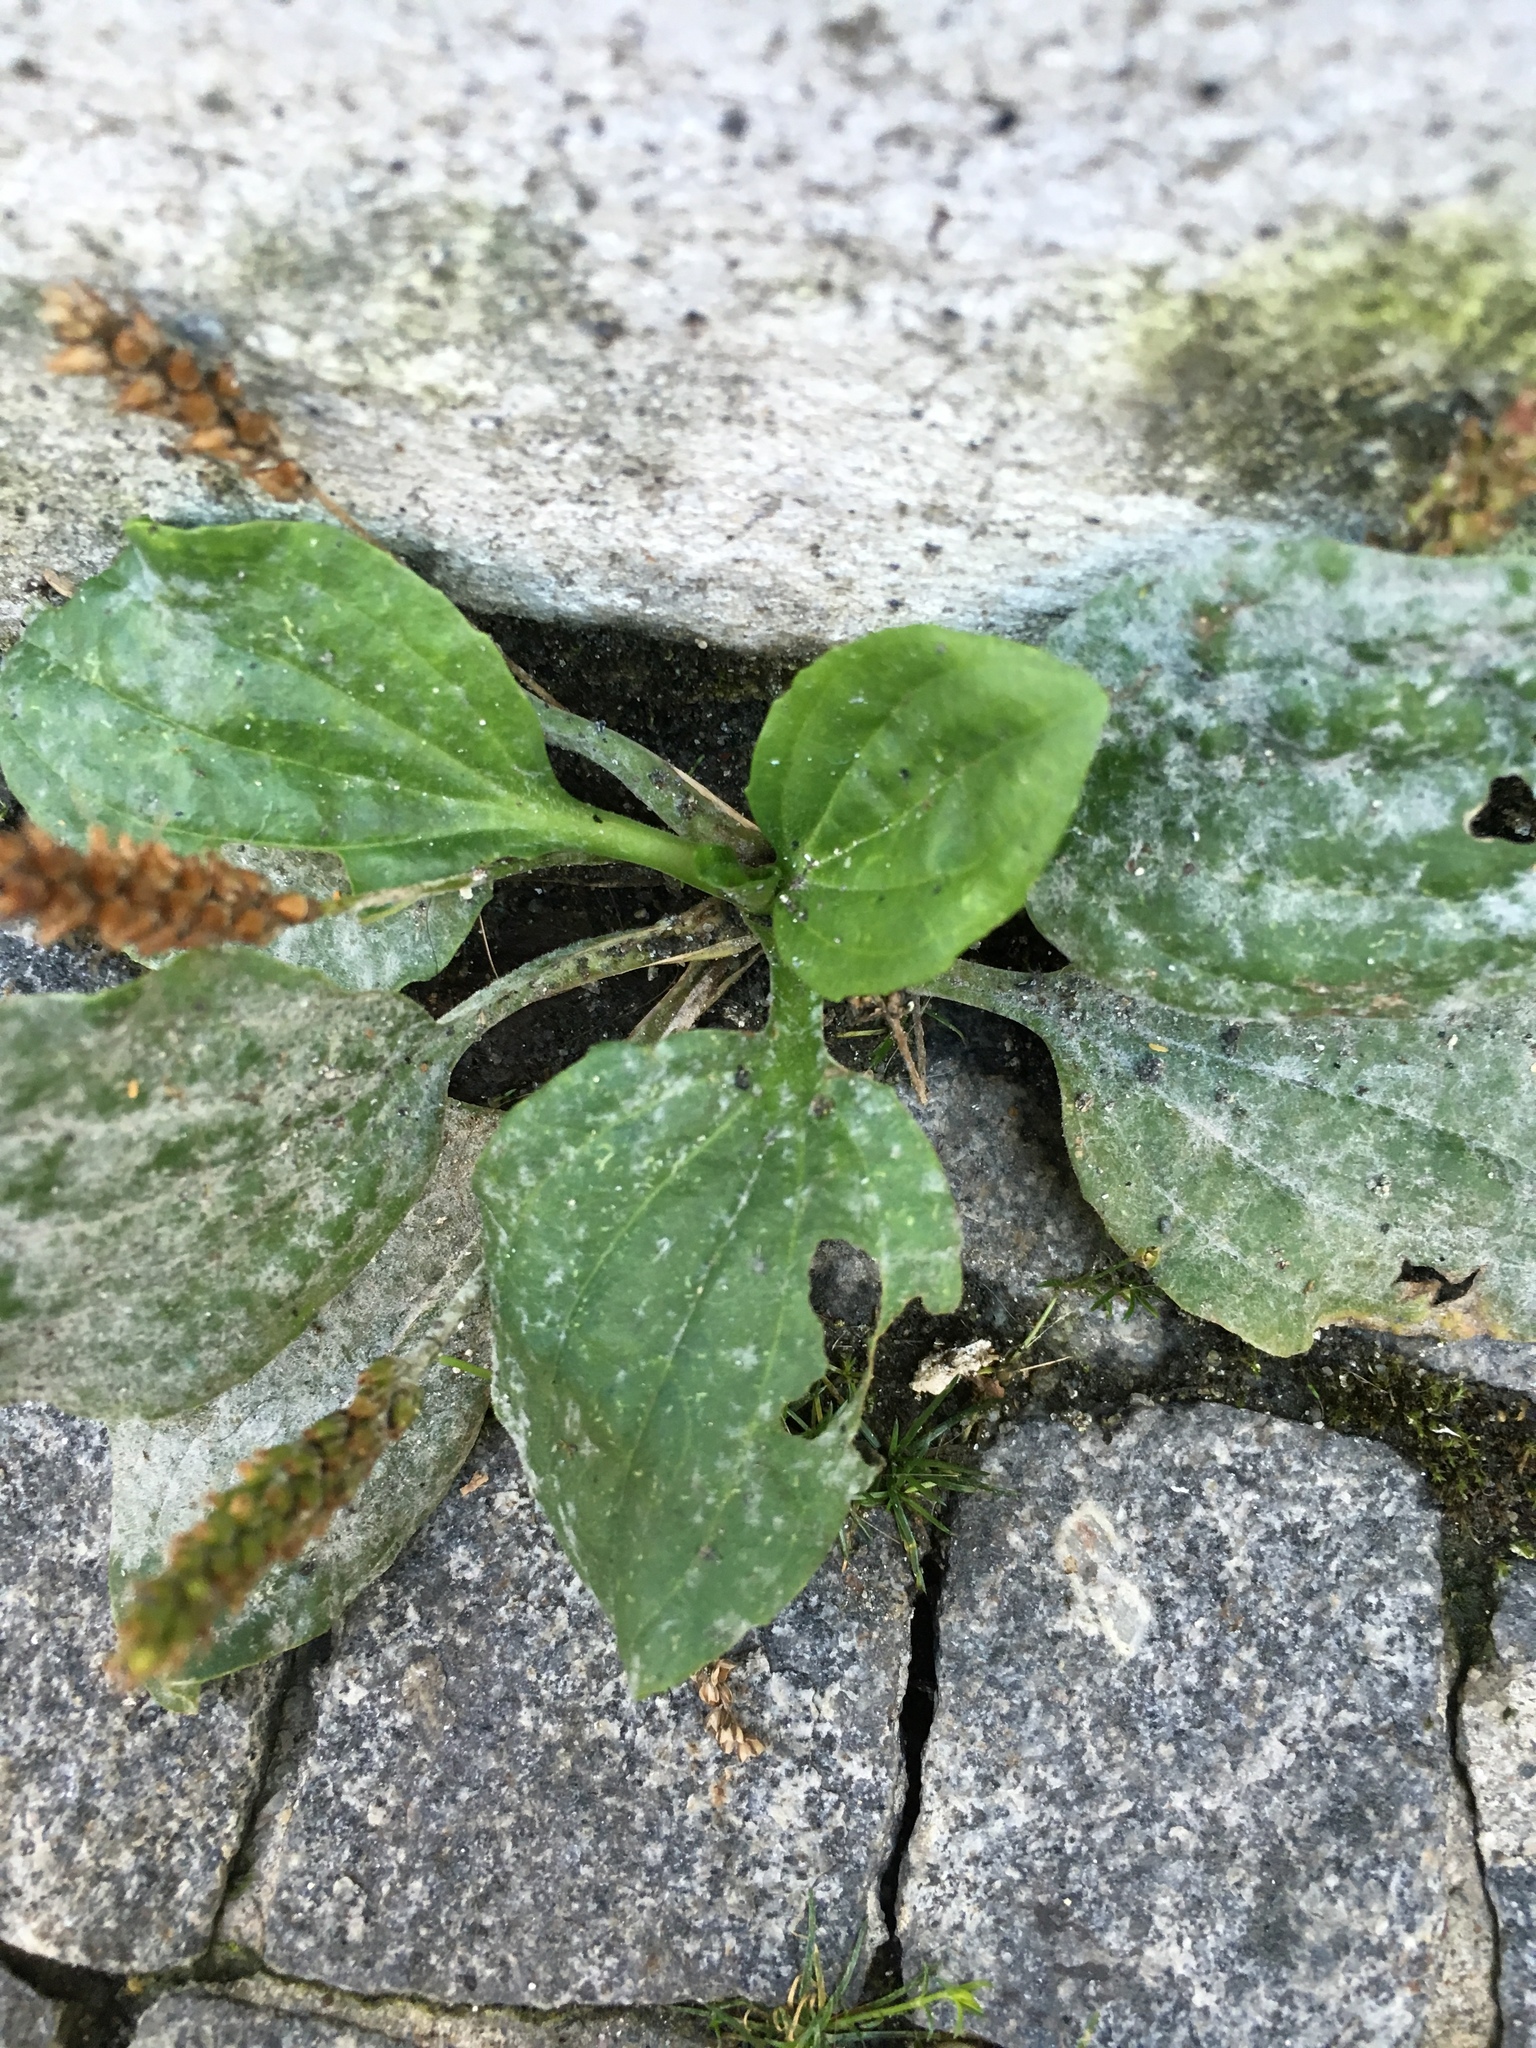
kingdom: Plantae
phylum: Tracheophyta
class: Magnoliopsida
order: Lamiales
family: Plantaginaceae
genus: Plantago
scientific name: Plantago major
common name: Common plantain
